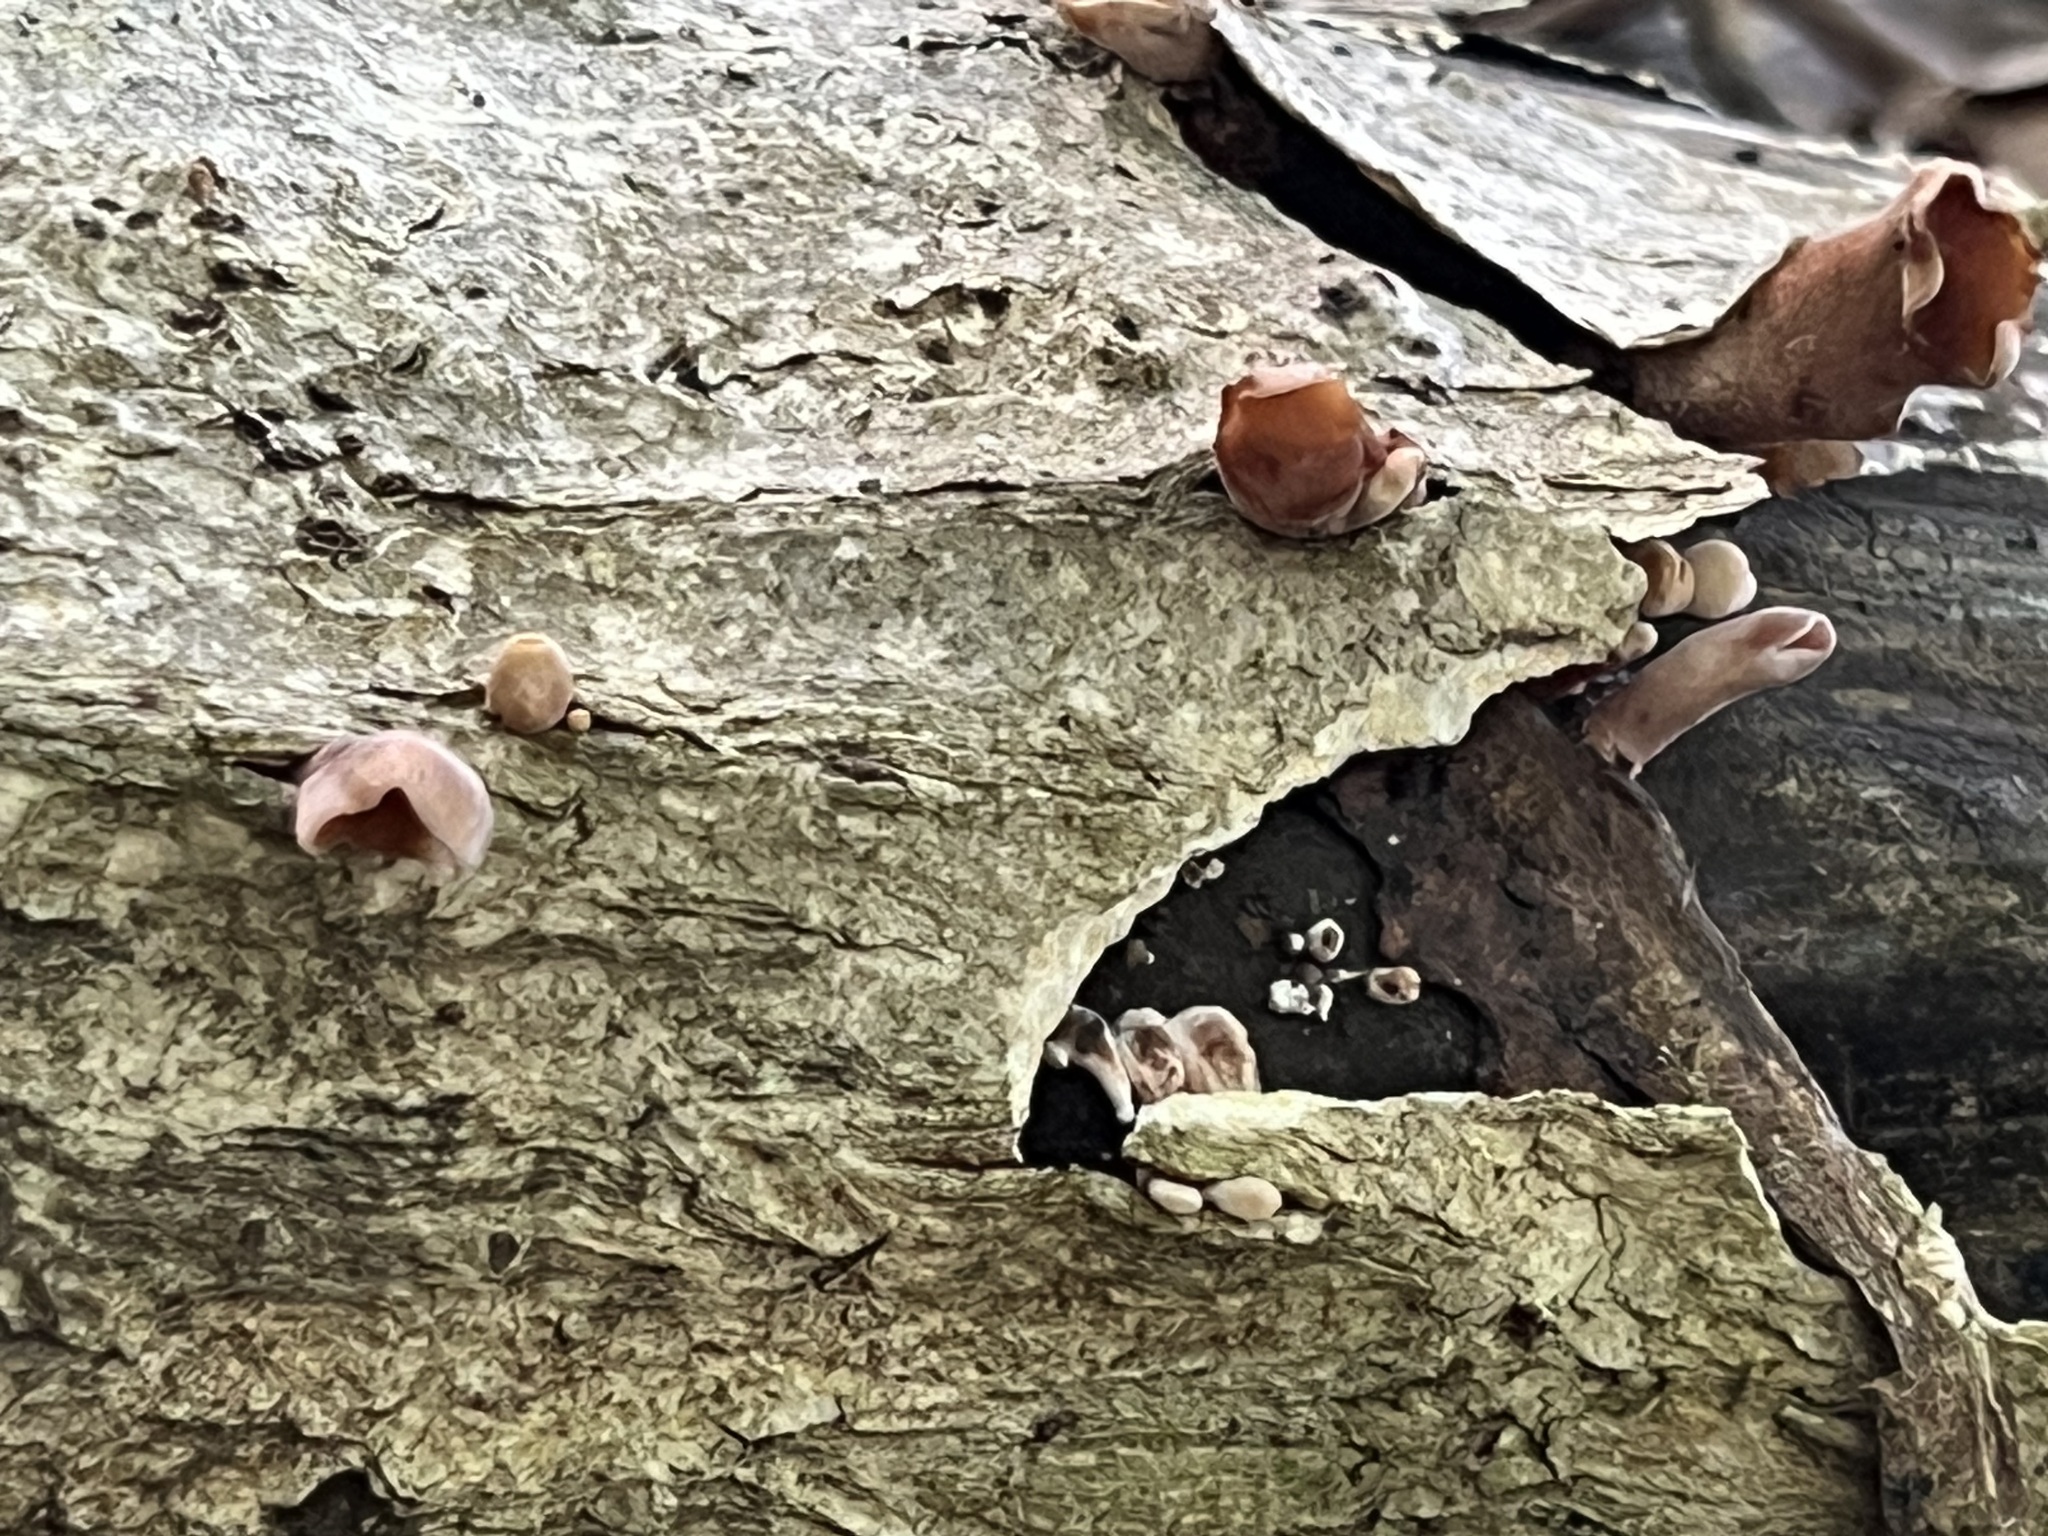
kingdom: Fungi
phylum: Basidiomycota
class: Dacrymycetes
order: Dacrymycetales
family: Dacrymycetaceae
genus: Dacryopinax
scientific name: Dacryopinax elegans
